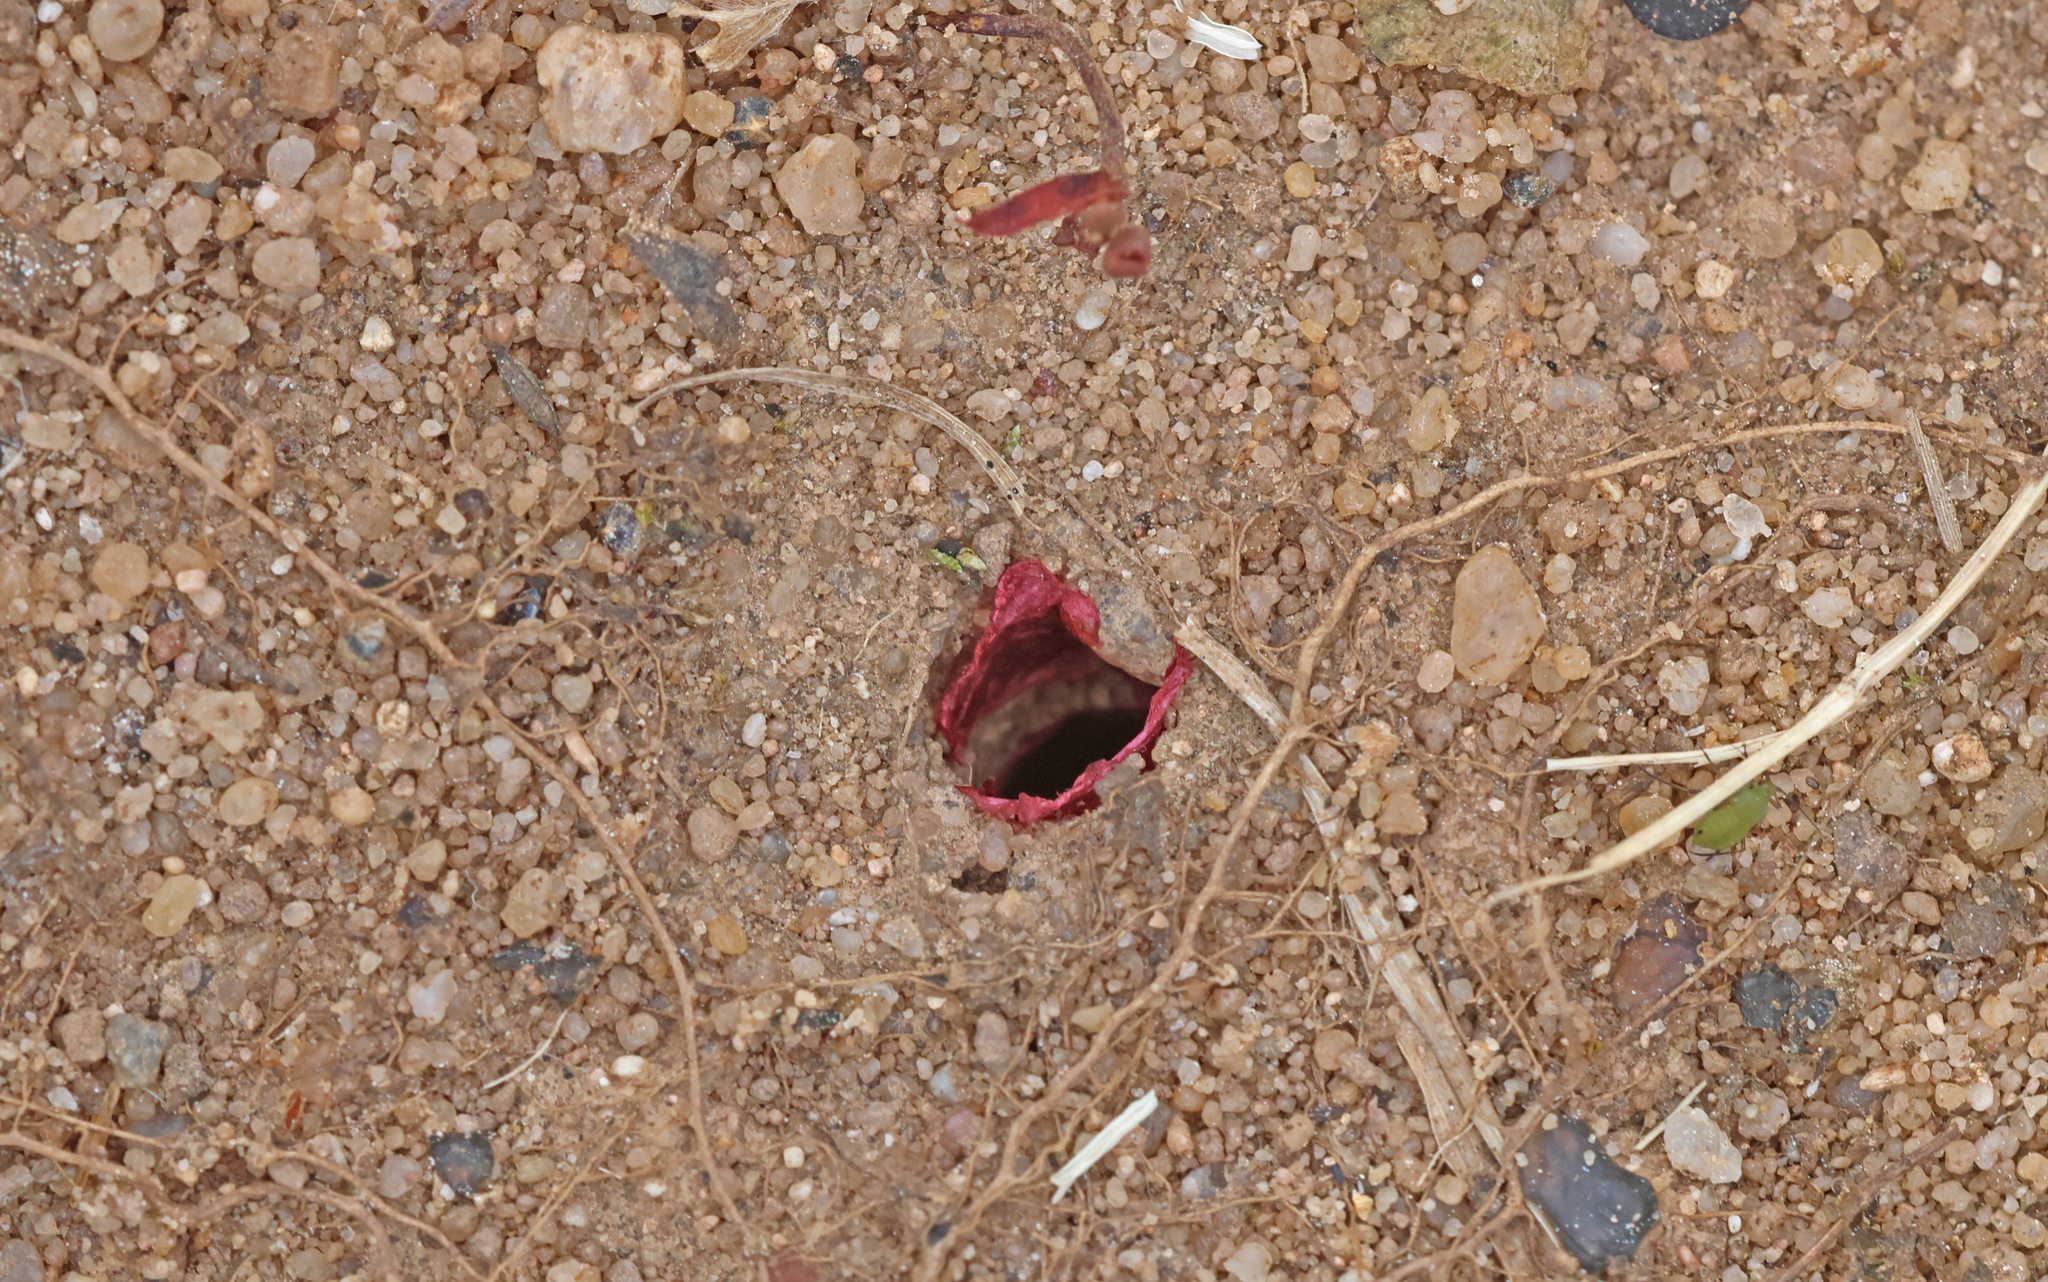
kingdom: Animalia
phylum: Arthropoda
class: Insecta
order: Hymenoptera
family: Megachilidae
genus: Hoplitis
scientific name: Hoplitis papaveris
